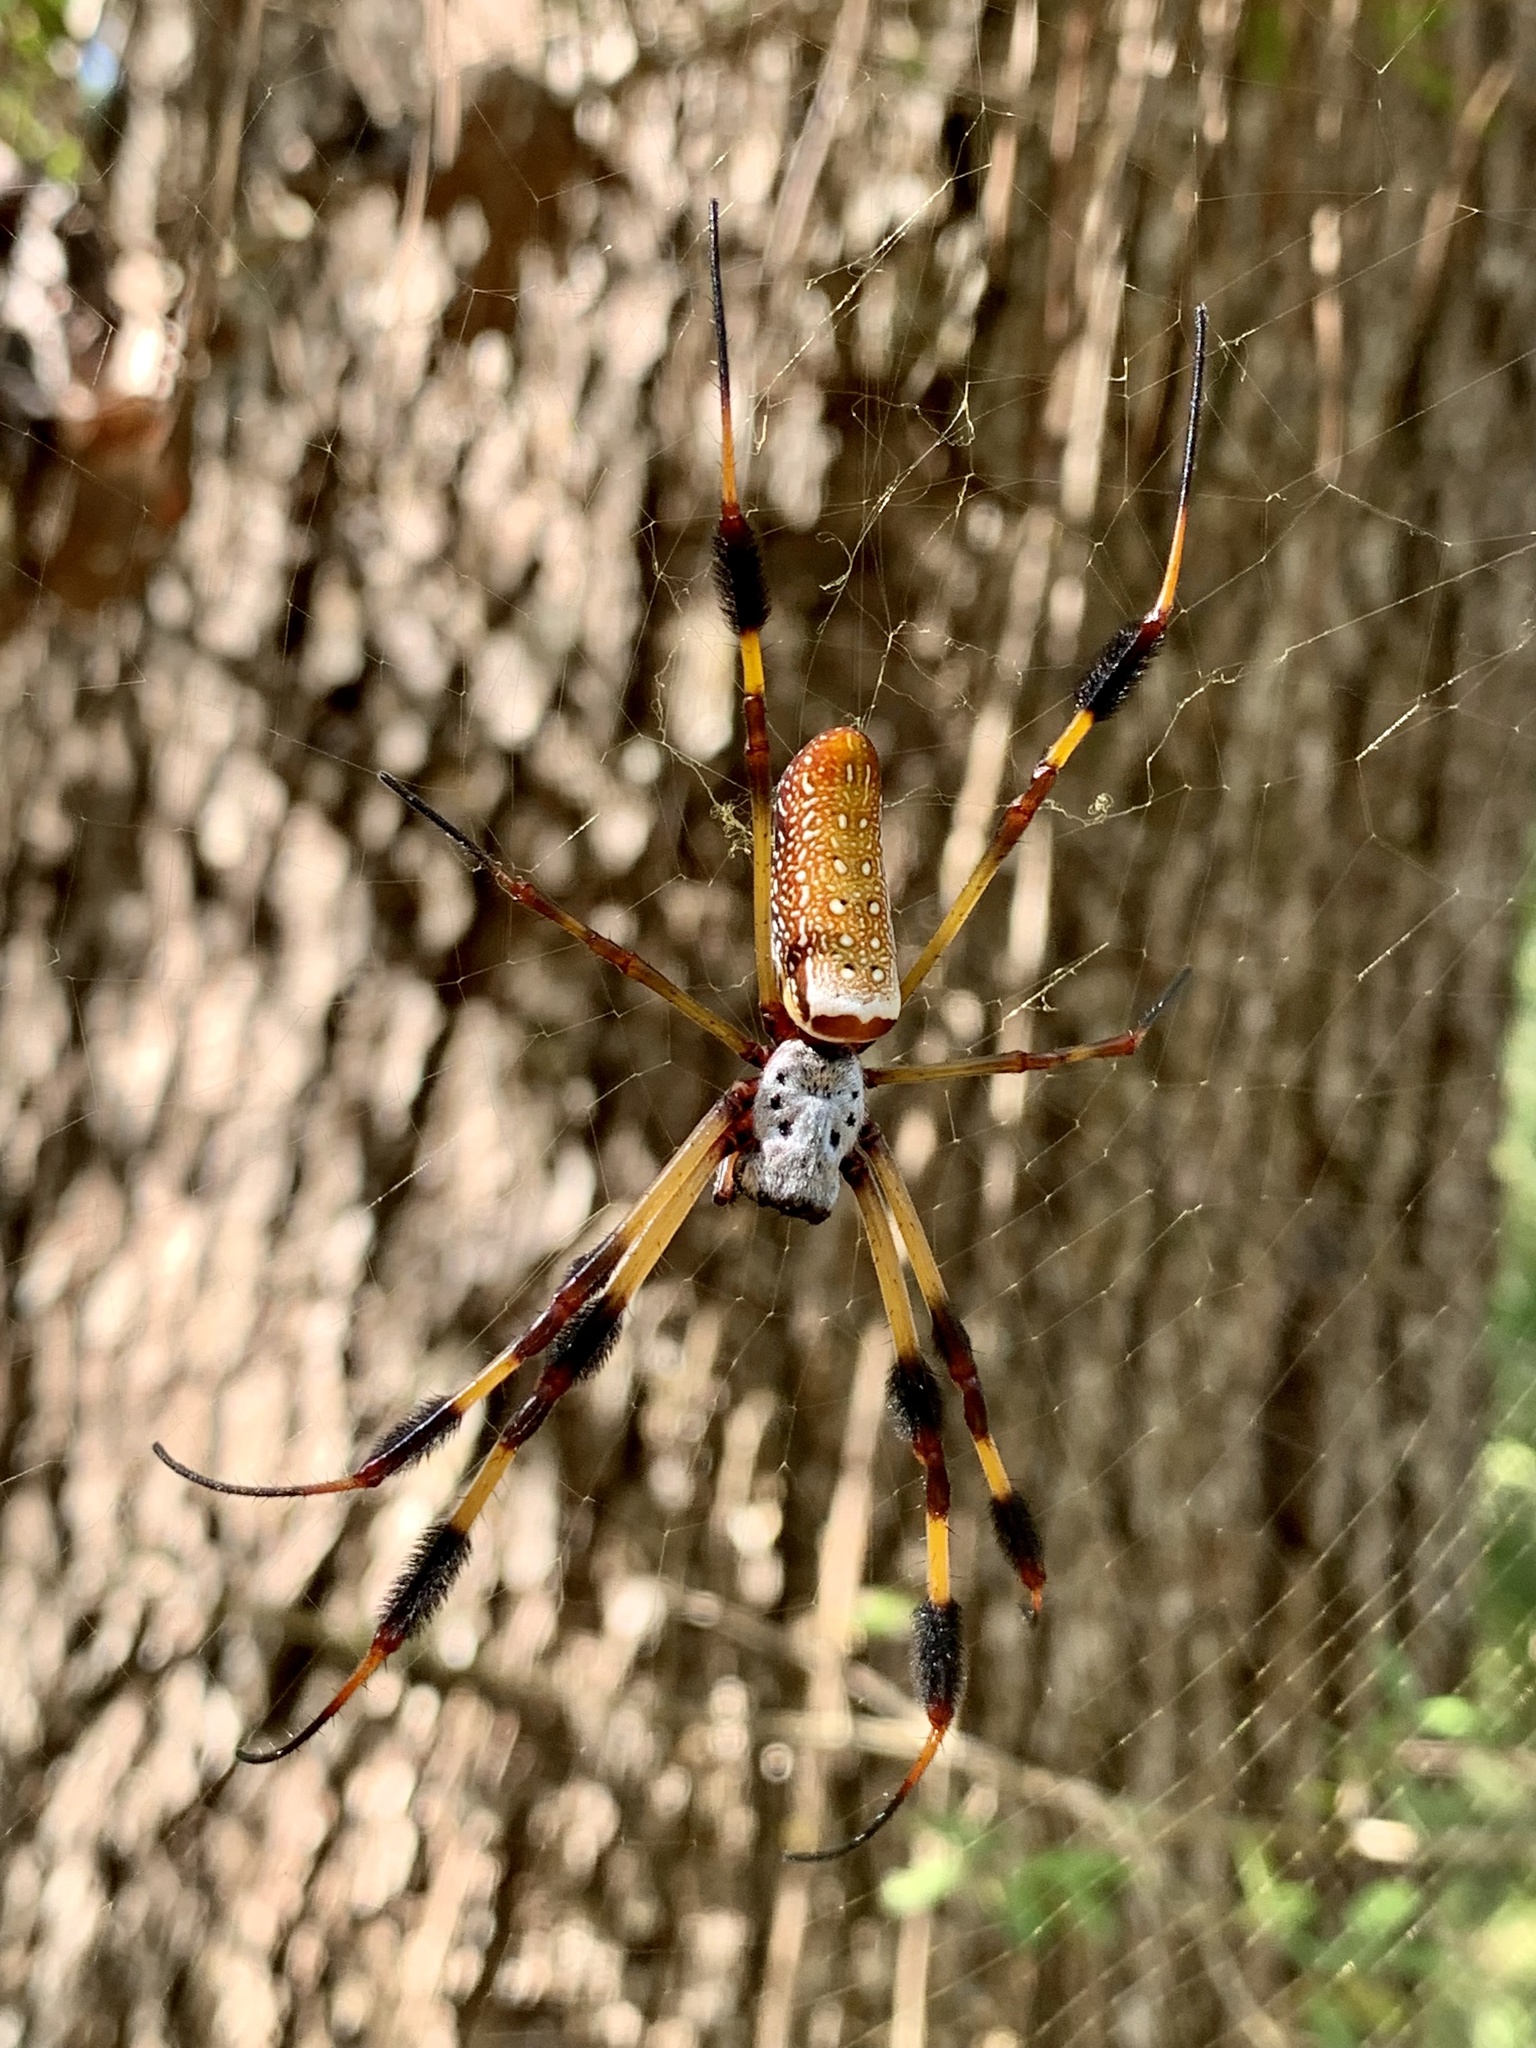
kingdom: Animalia
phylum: Arthropoda
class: Arachnida
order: Araneae
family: Araneidae
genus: Trichonephila
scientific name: Trichonephila clavipes
